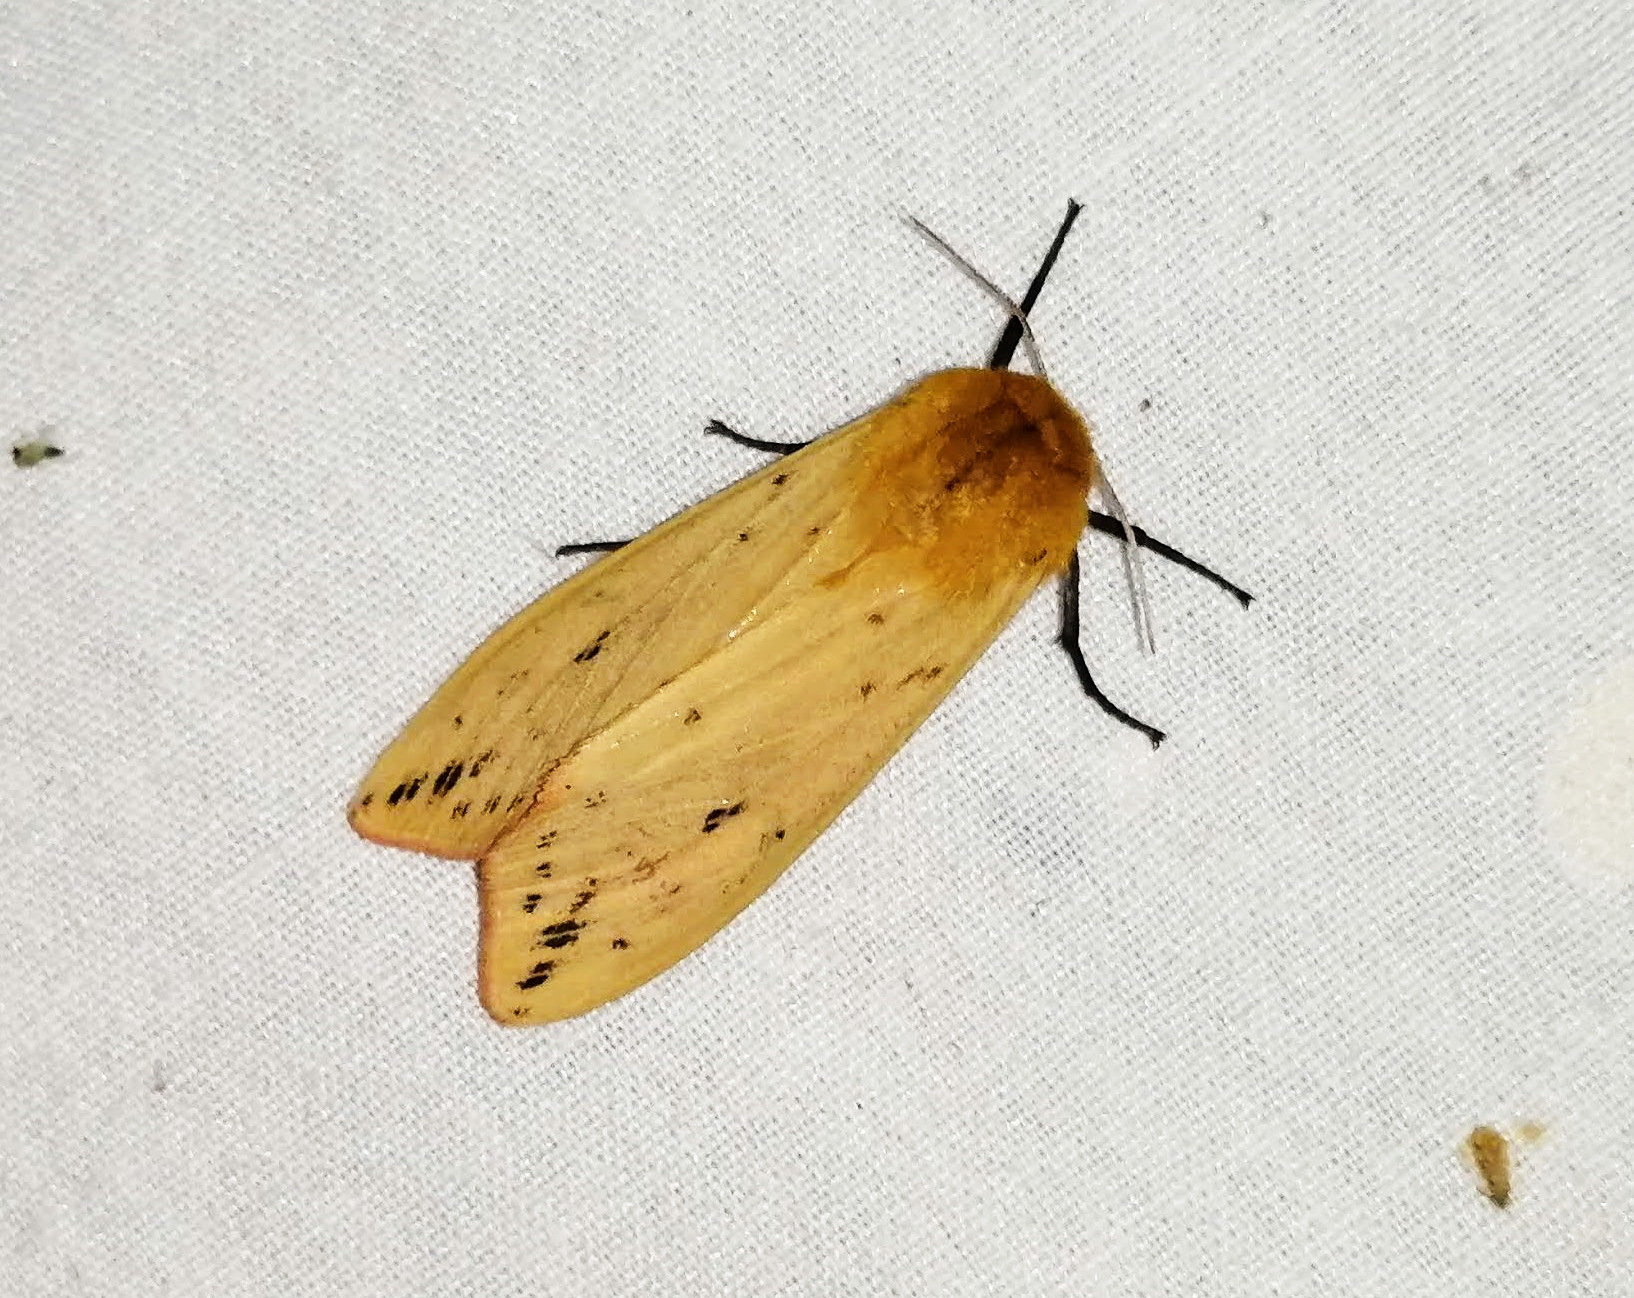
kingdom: Animalia
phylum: Arthropoda
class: Insecta
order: Lepidoptera
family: Erebidae
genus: Pyrrharctia
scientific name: Pyrrharctia isabella
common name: Isabella tiger moth
